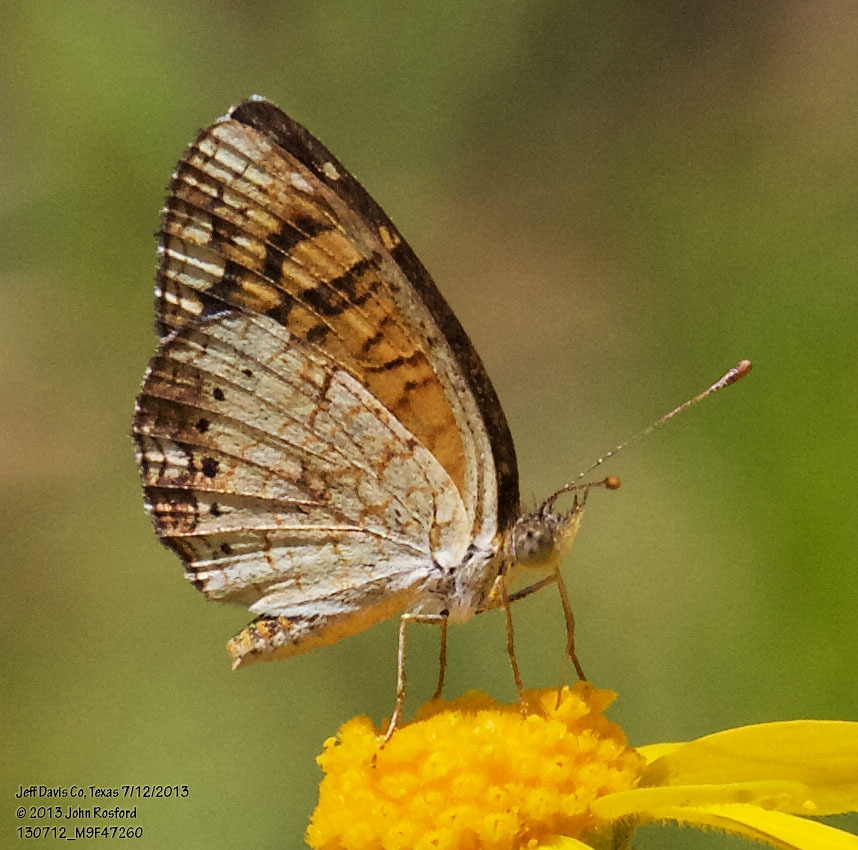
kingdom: Animalia
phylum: Arthropoda
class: Insecta
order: Lepidoptera
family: Nymphalidae
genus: Phyciodes
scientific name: Phyciodes vesta
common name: Vesta crescent
